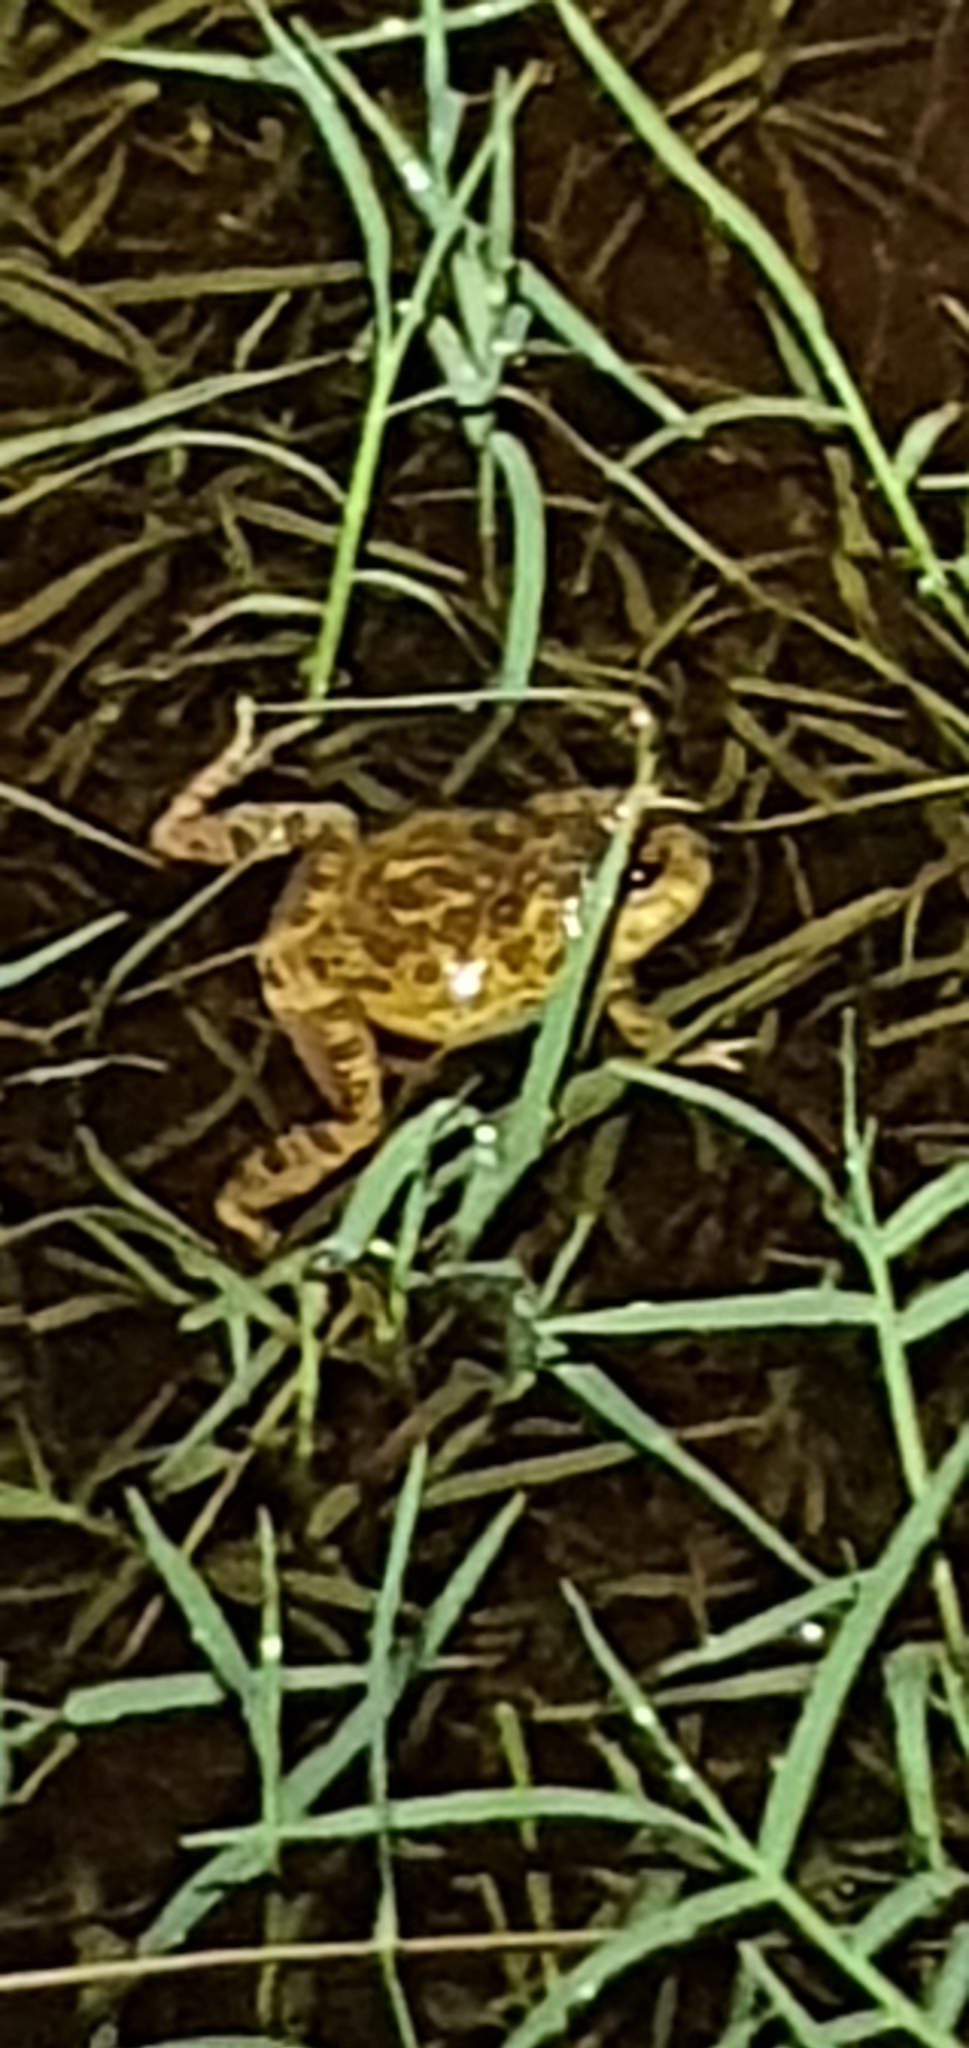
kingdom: Animalia
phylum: Chordata
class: Amphibia
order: Anura
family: Limnodynastidae
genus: Platyplectrum
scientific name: Platyplectrum ornatum
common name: Ornate burrowing frog
